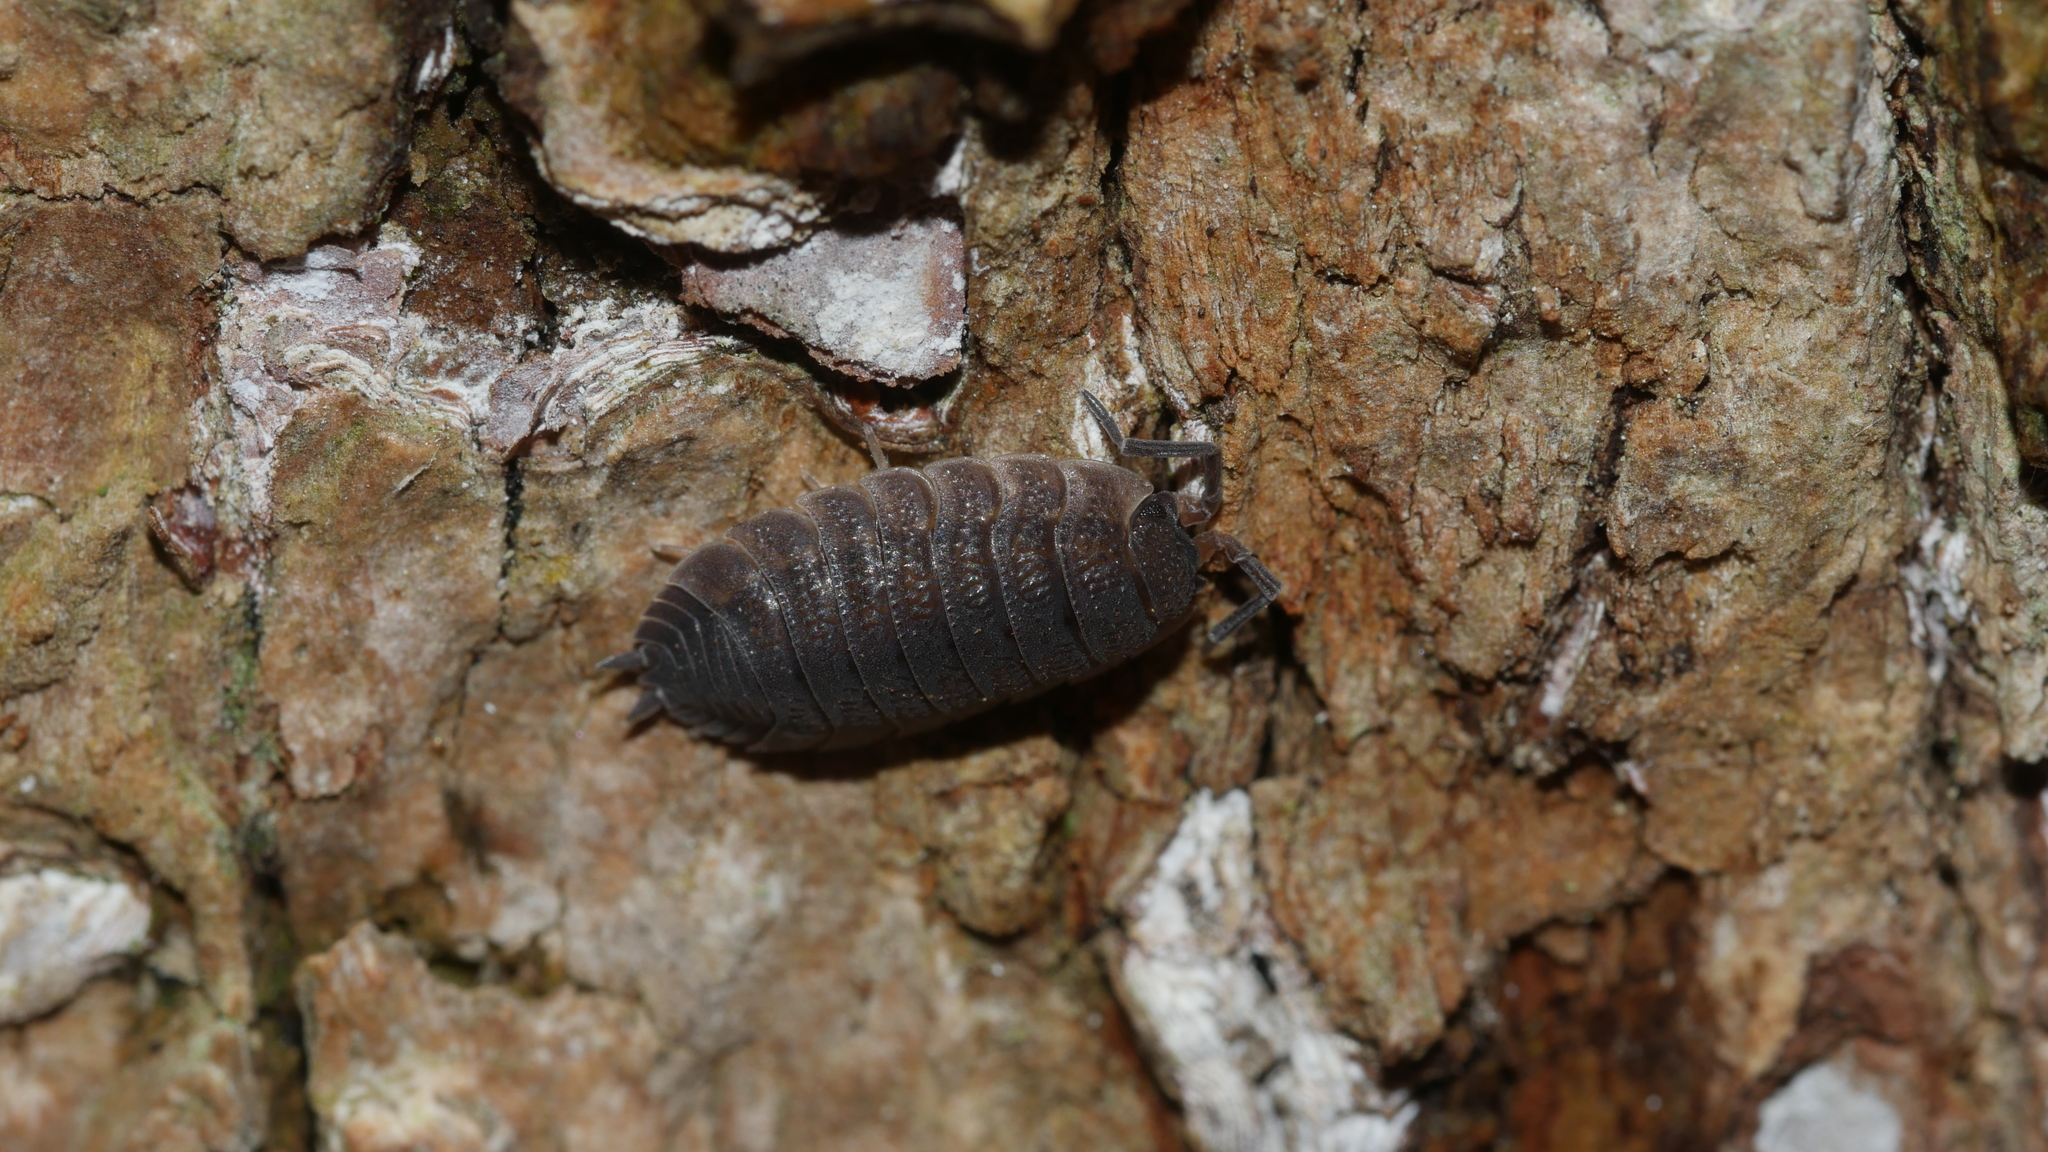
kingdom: Animalia
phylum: Arthropoda
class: Malacostraca
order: Isopoda
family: Porcellionidae
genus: Porcellio
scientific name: Porcellio scaber
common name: Common rough woodlouse
